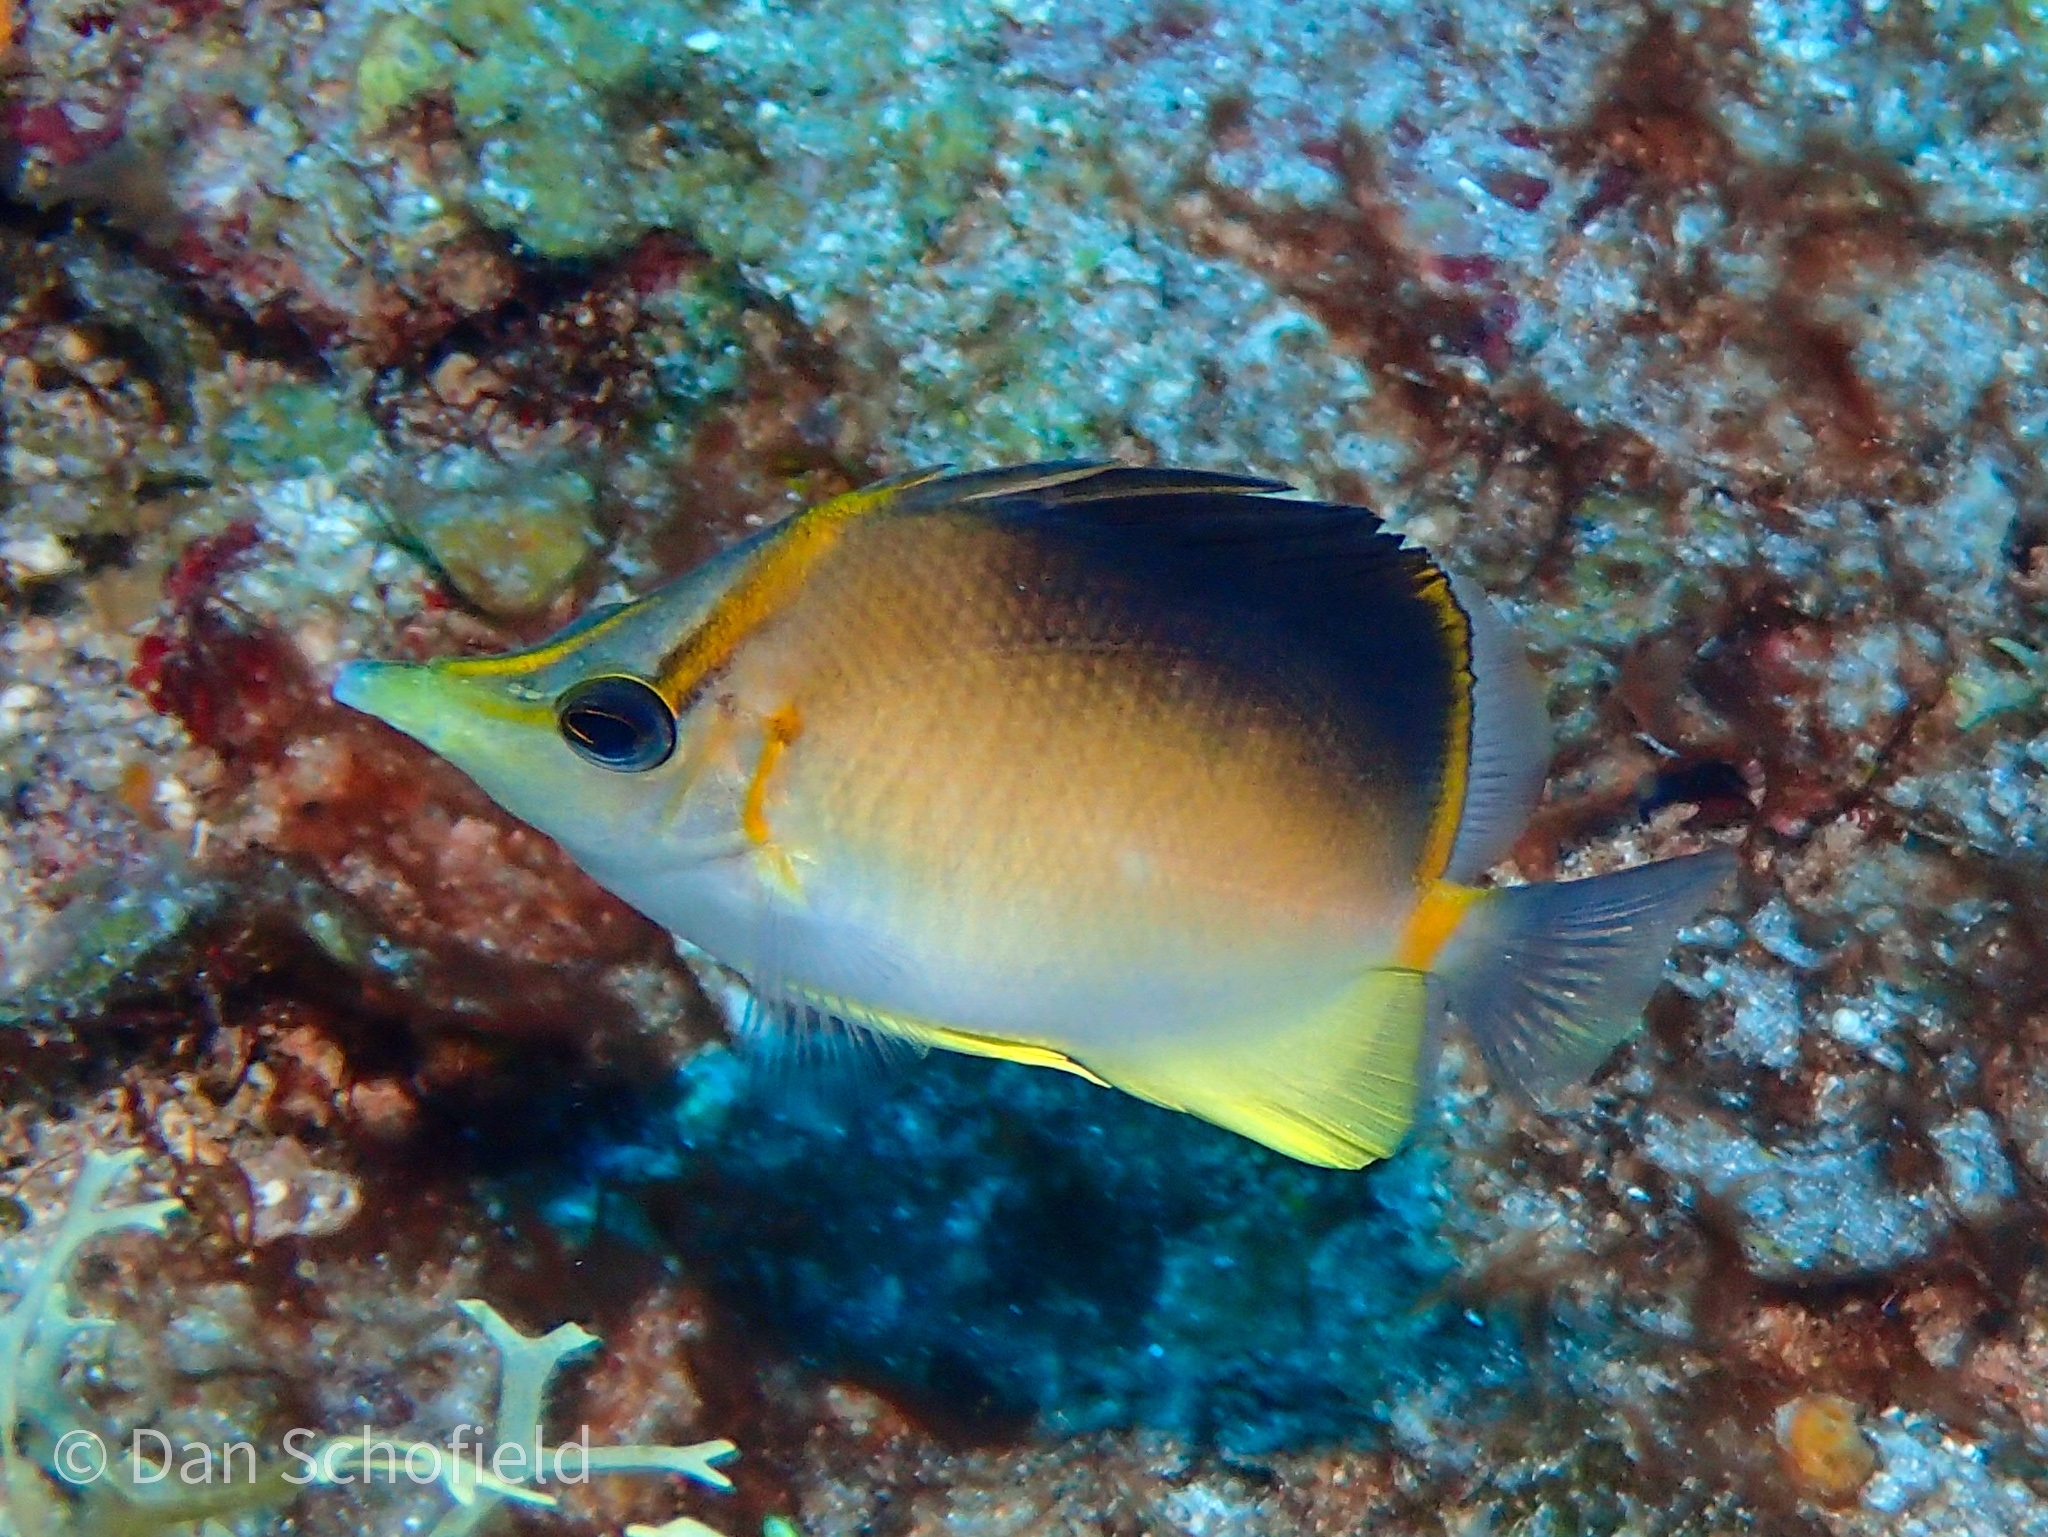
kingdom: Animalia
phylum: Chordata
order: Perciformes
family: Chaetodontidae
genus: Prognathodes
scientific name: Prognathodes aculeatus
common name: Longsnout butterflyfish
